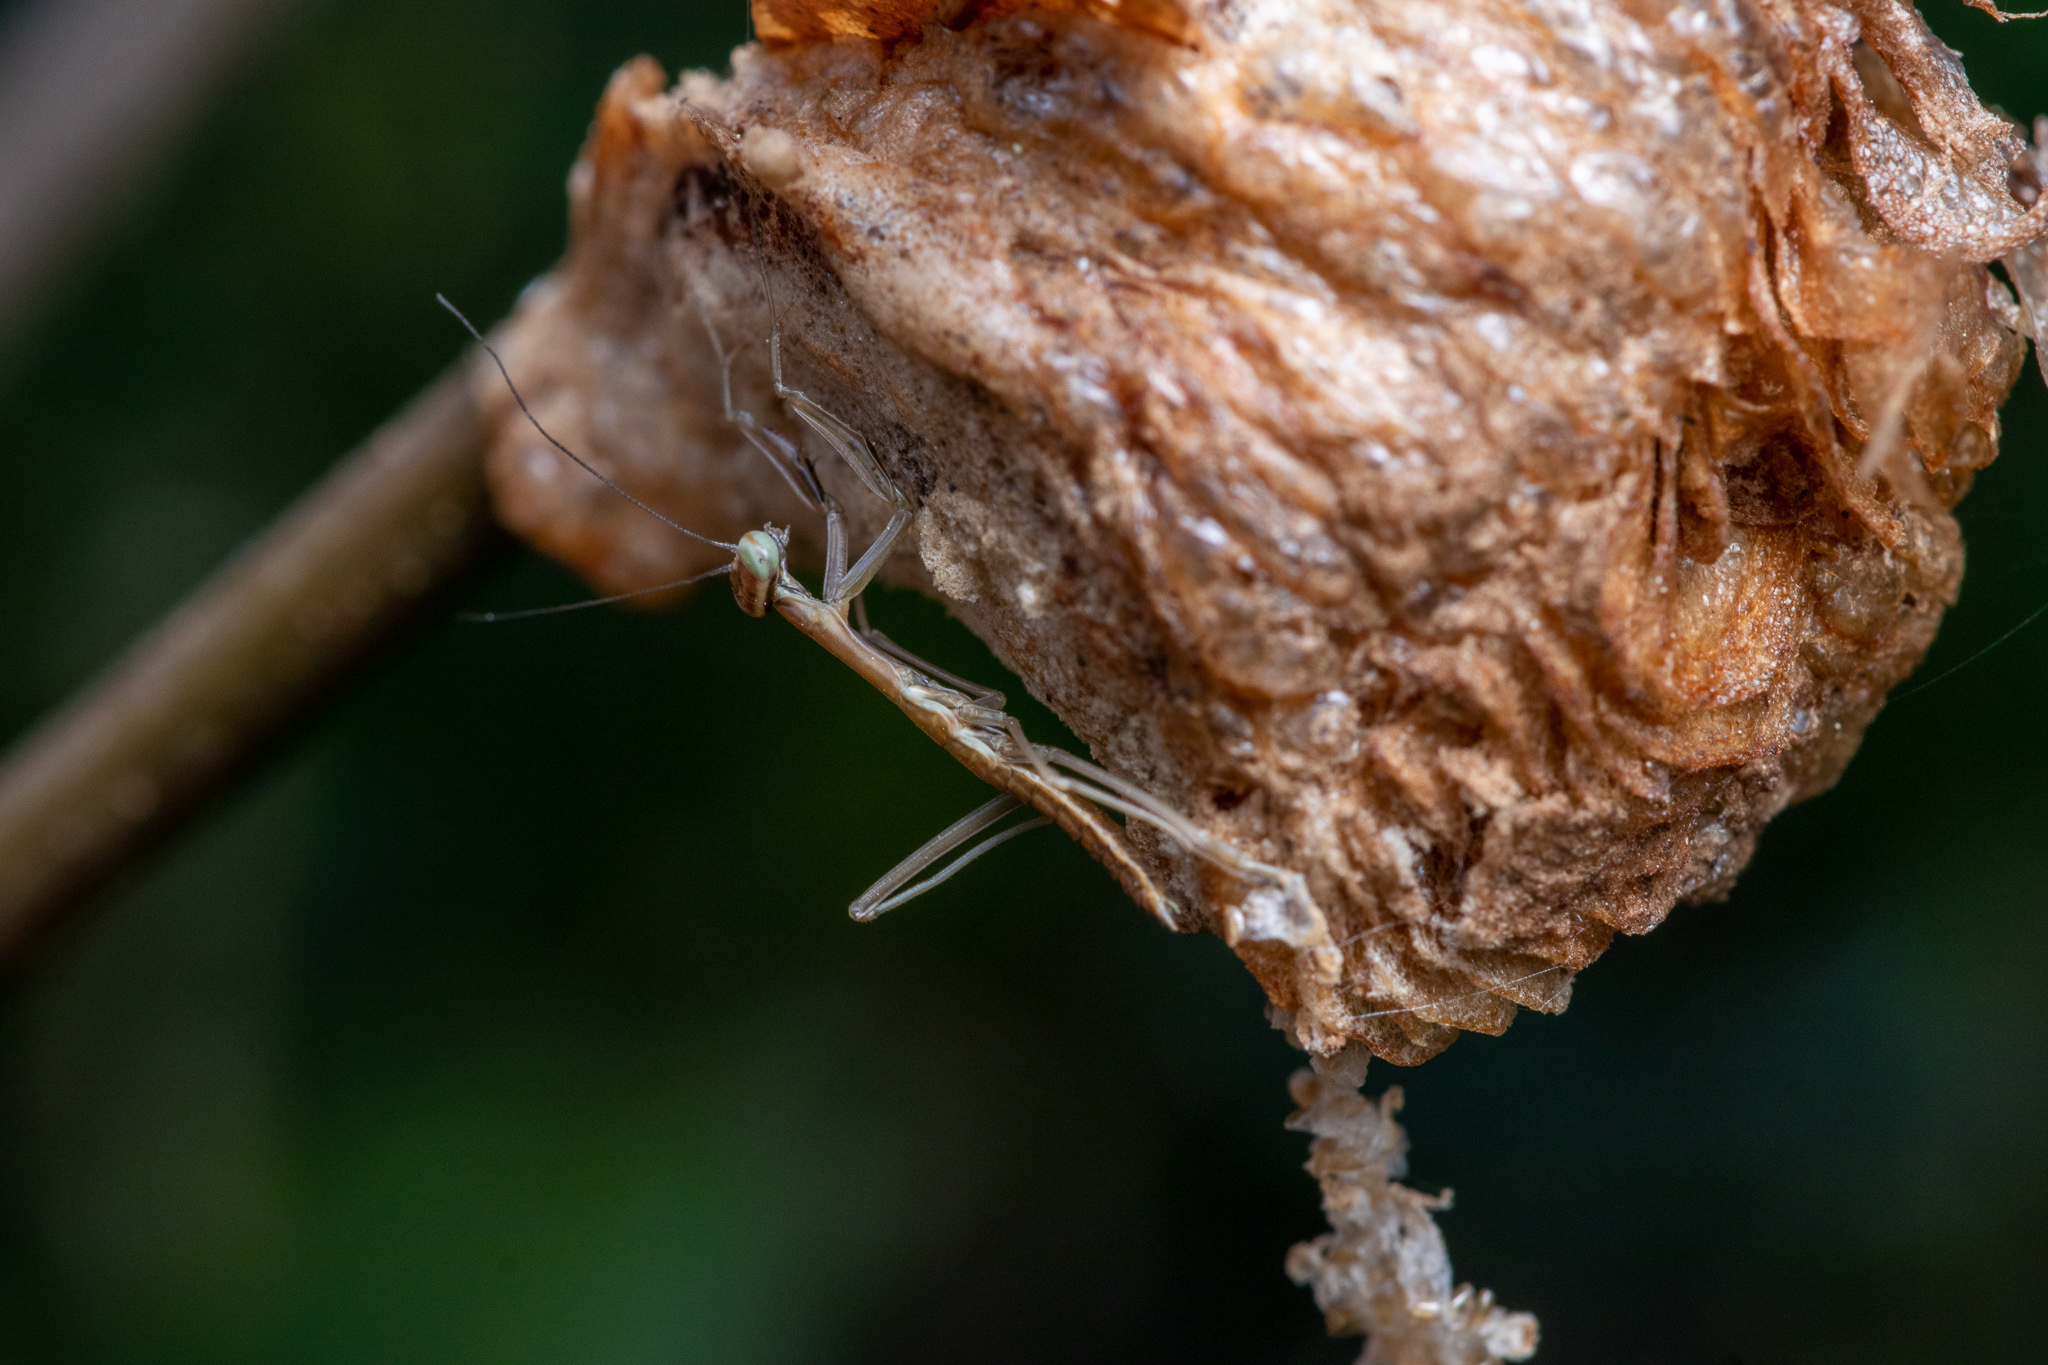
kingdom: Animalia
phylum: Arthropoda
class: Insecta
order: Mantodea
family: Mantidae
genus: Tenodera
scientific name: Tenodera sinensis
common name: Chinese mantis
